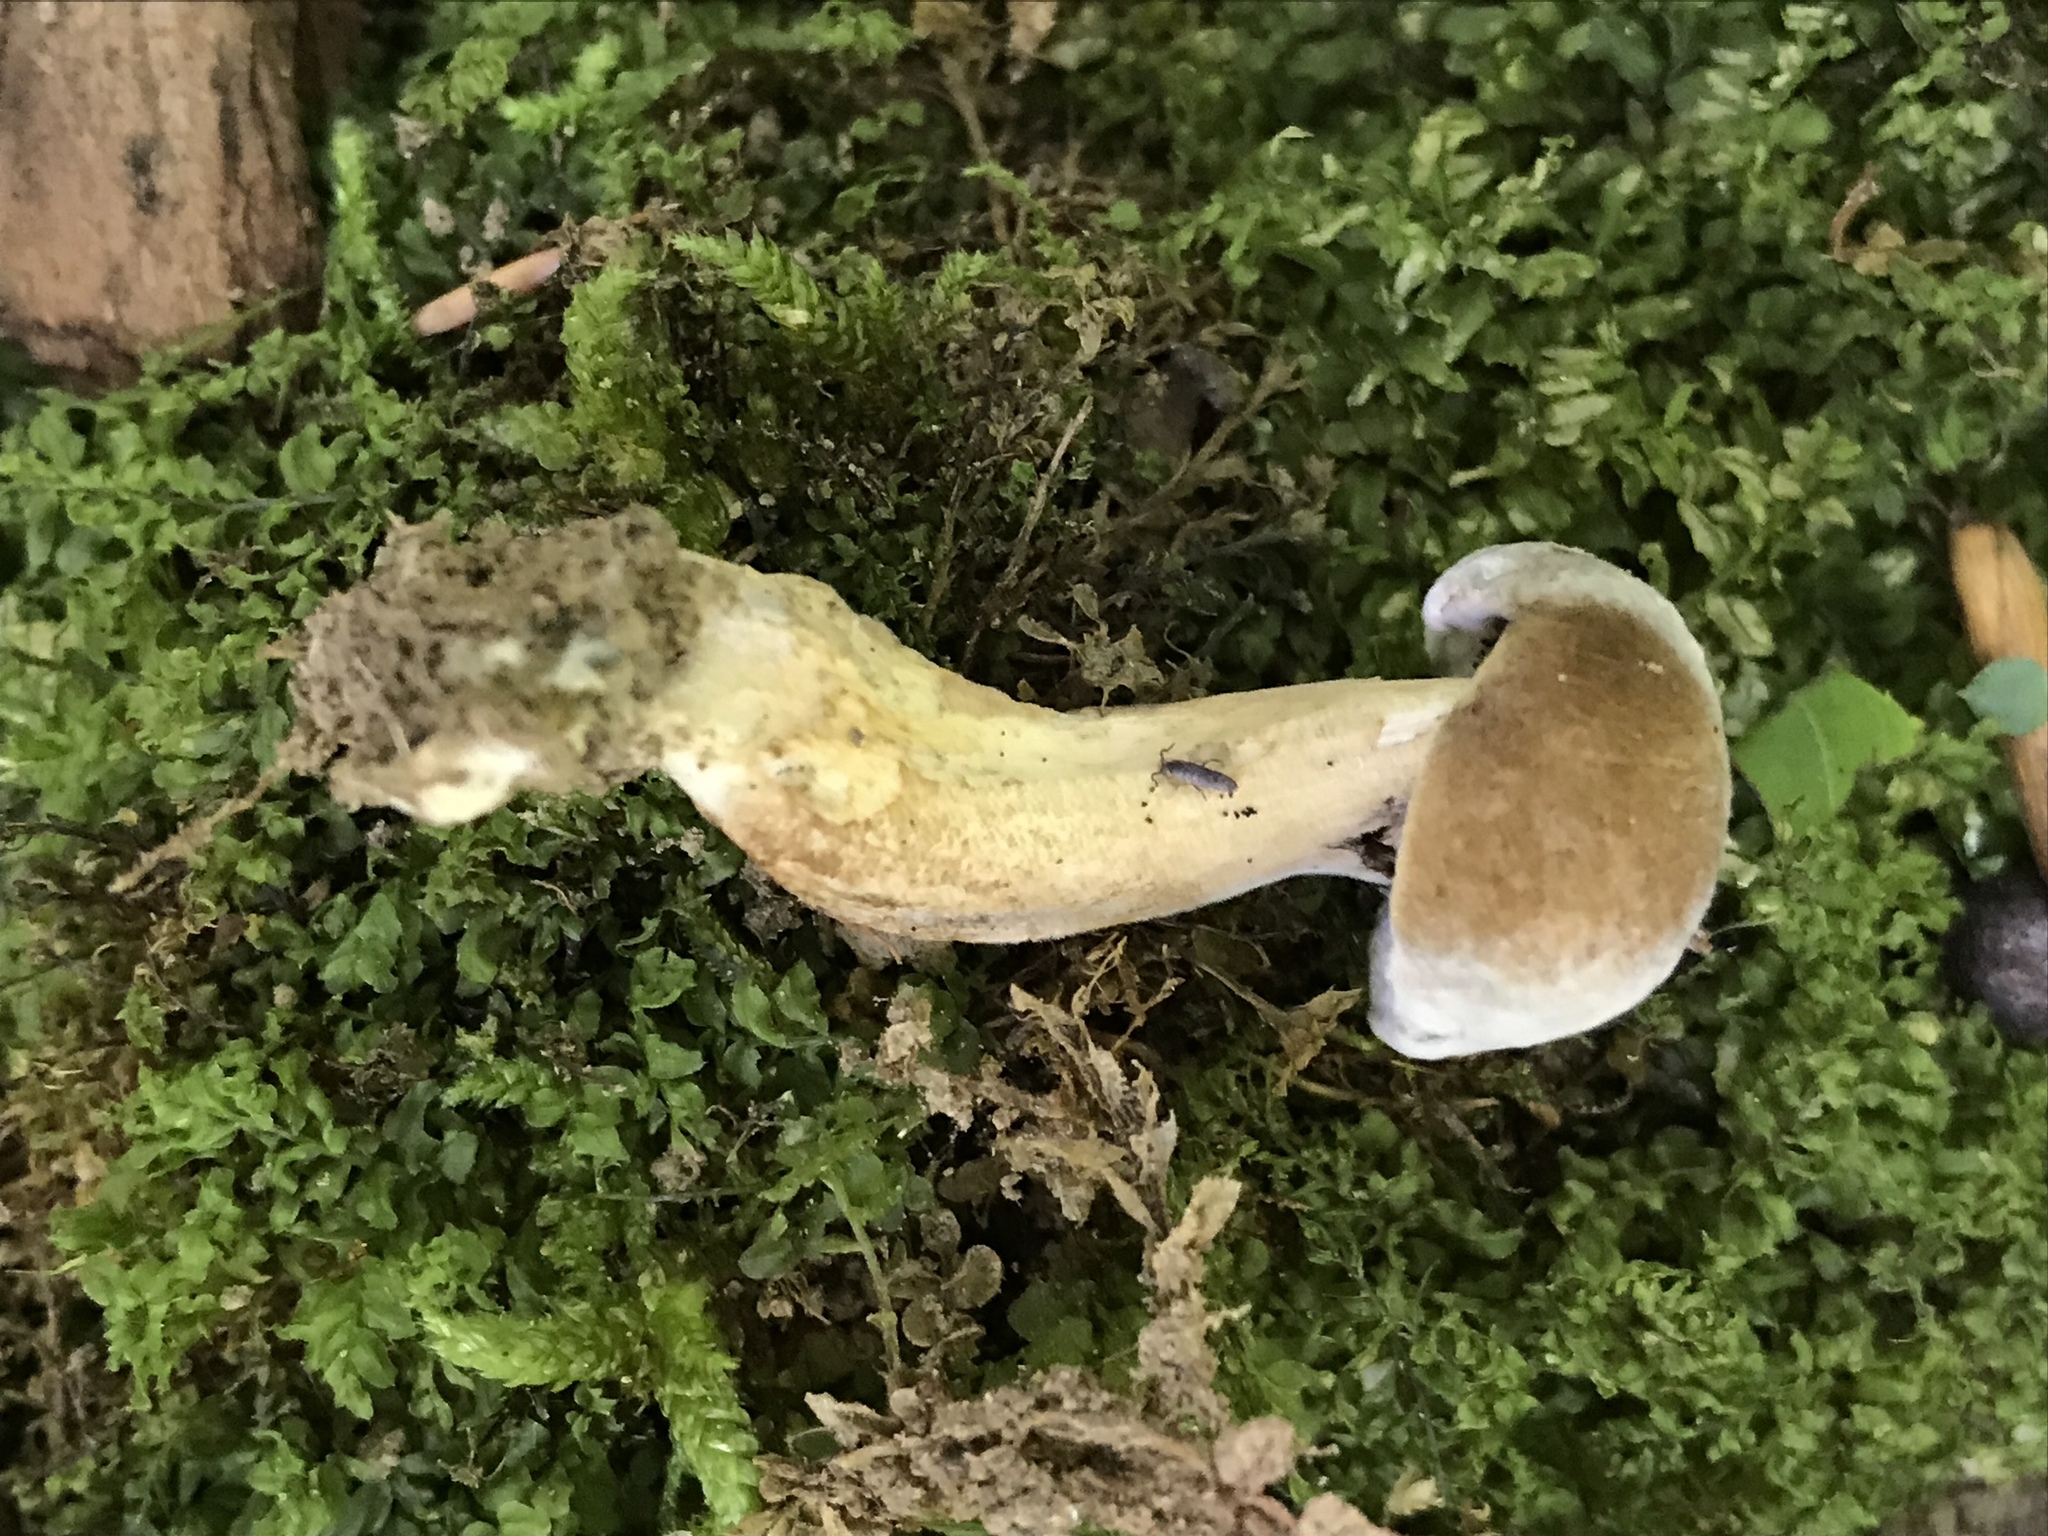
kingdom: Fungi
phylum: Basidiomycota
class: Agaricomycetes
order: Boletales
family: Boletaceae
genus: Porphyrellus
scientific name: Porphyrellus sordidus
